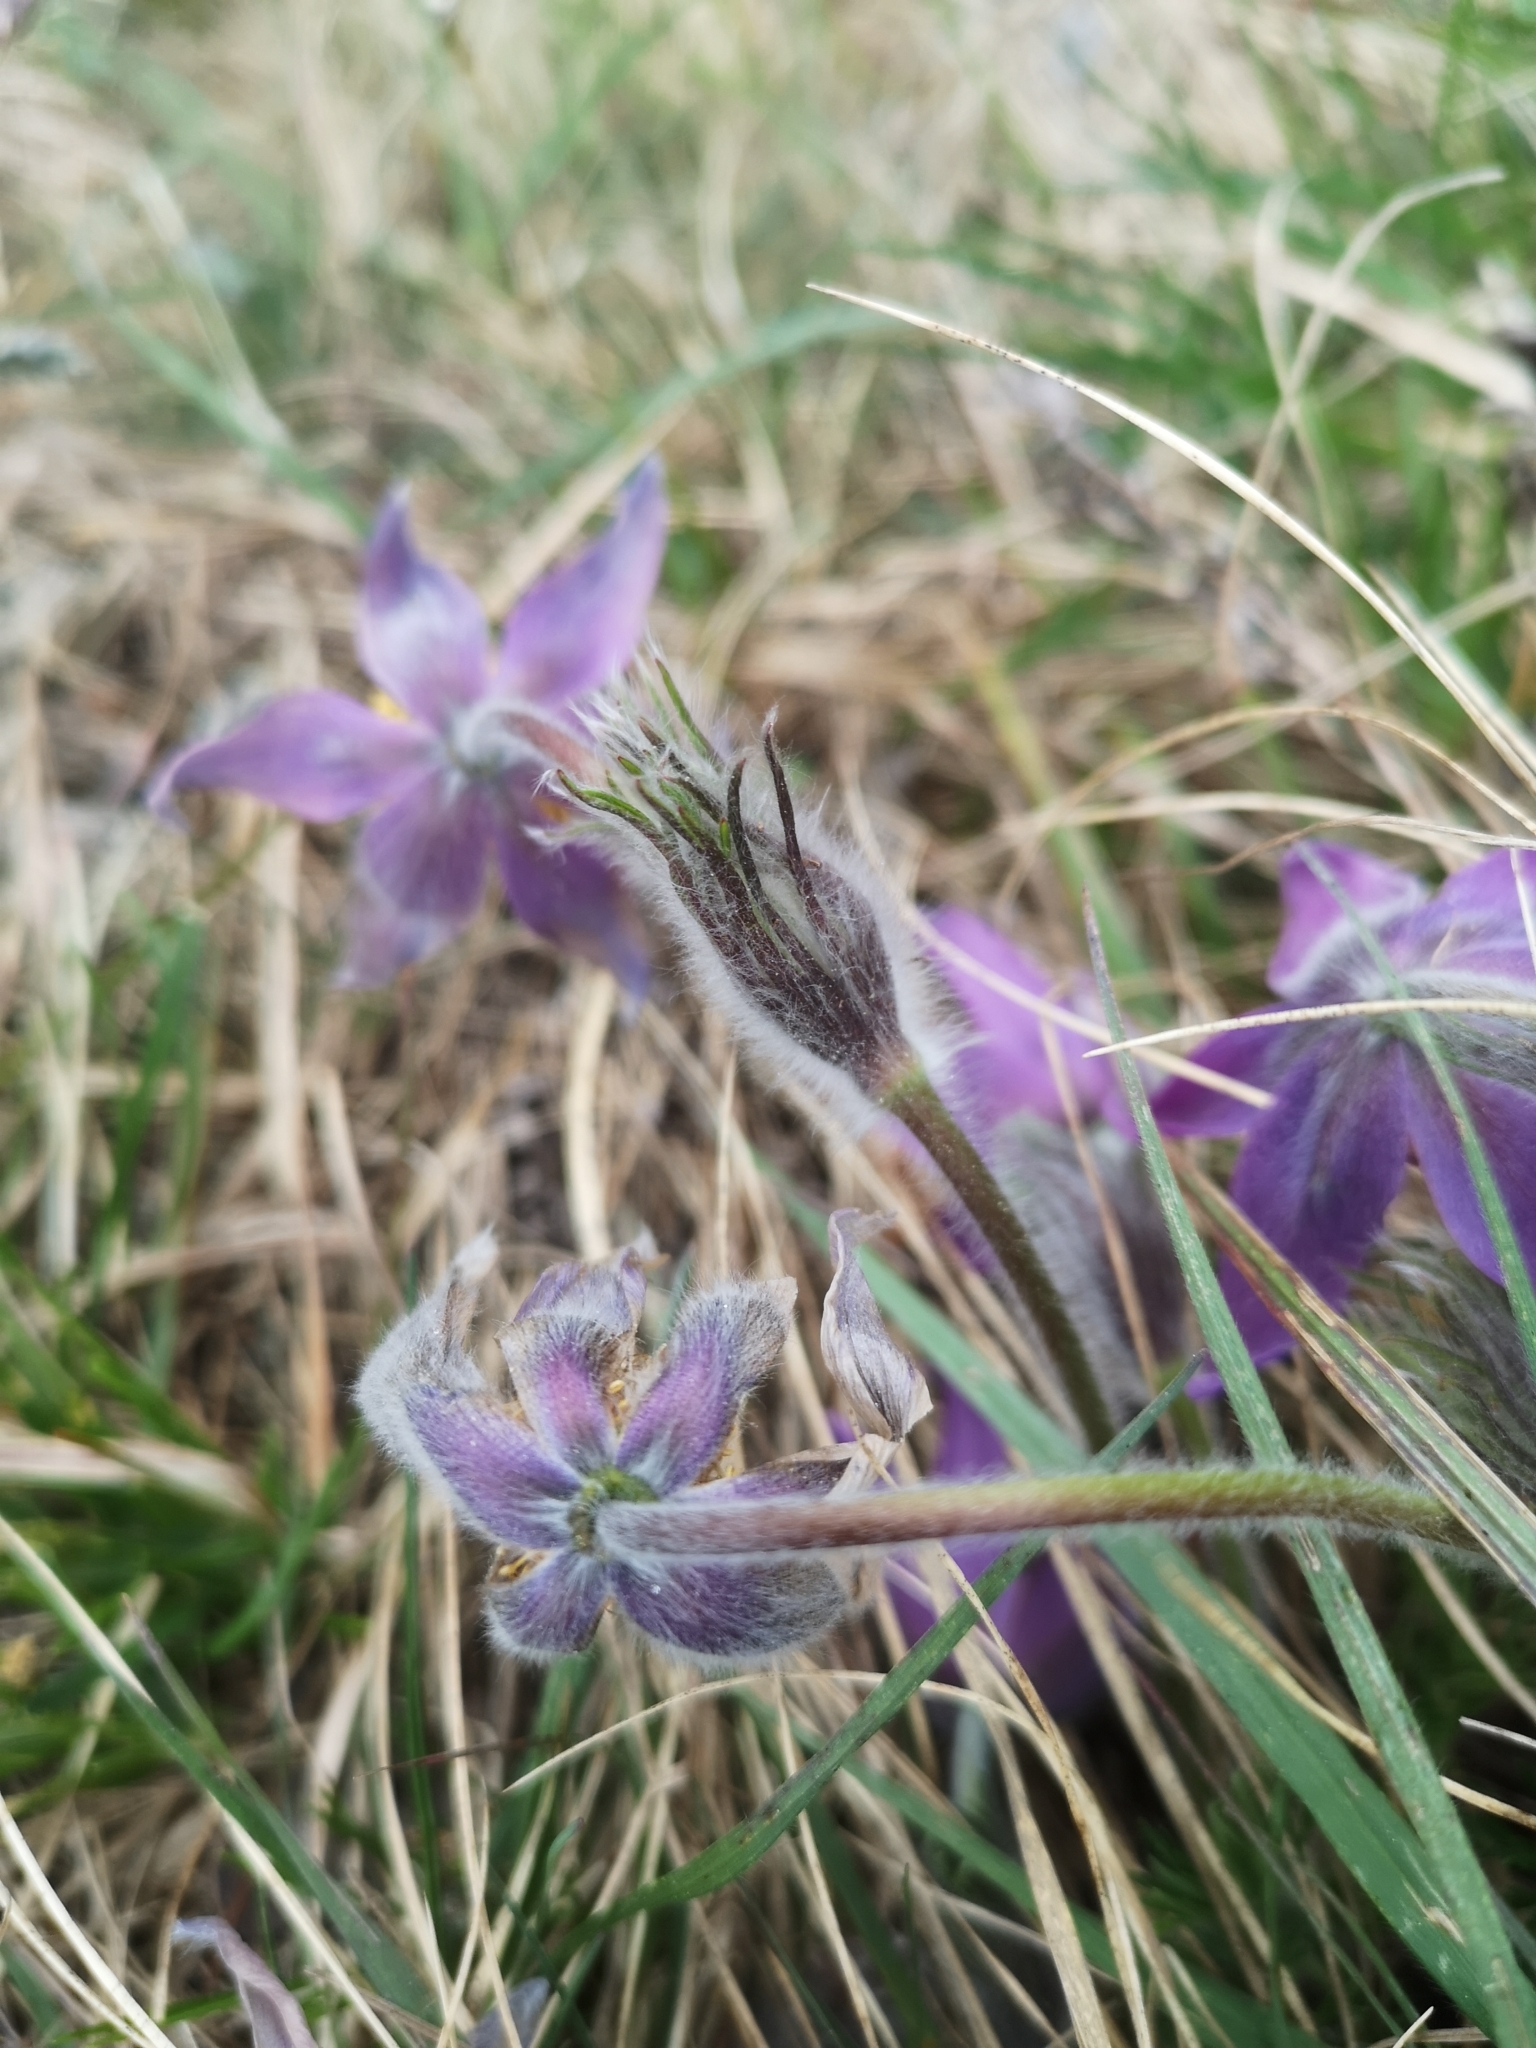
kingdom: Plantae
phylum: Tracheophyta
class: Magnoliopsida
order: Ranunculales
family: Ranunculaceae
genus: Pulsatilla
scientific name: Pulsatilla vulgaris
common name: Pasqueflower
